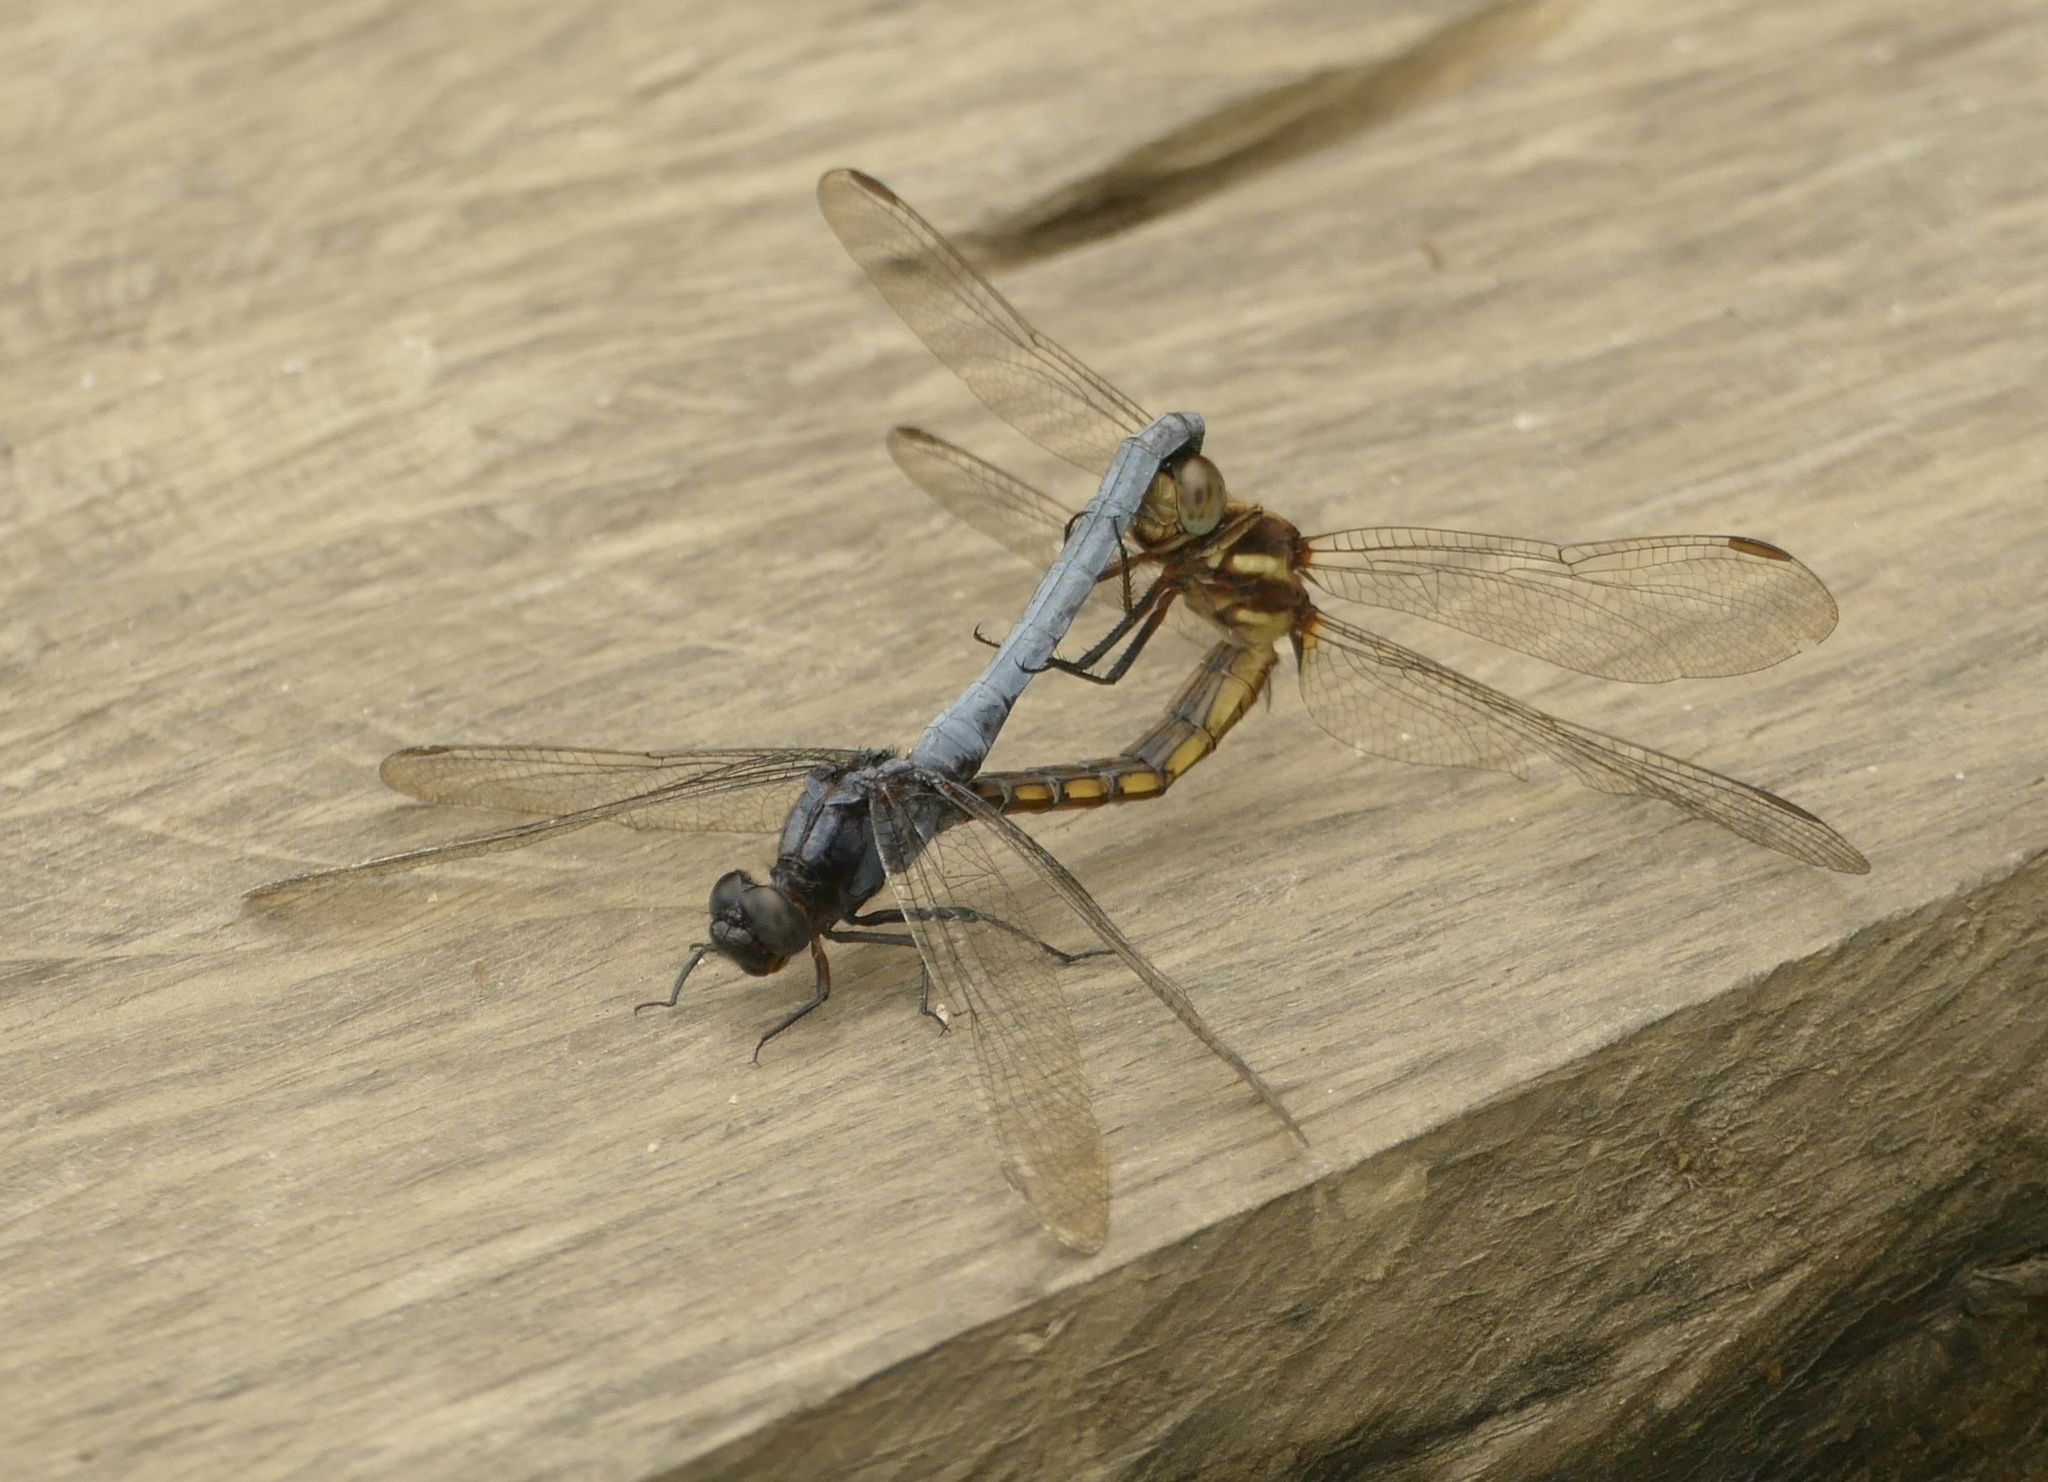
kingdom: Animalia
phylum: Arthropoda
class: Insecta
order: Odonata
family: Libellulidae
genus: Orthetrum
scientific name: Orthetrum glaucum
